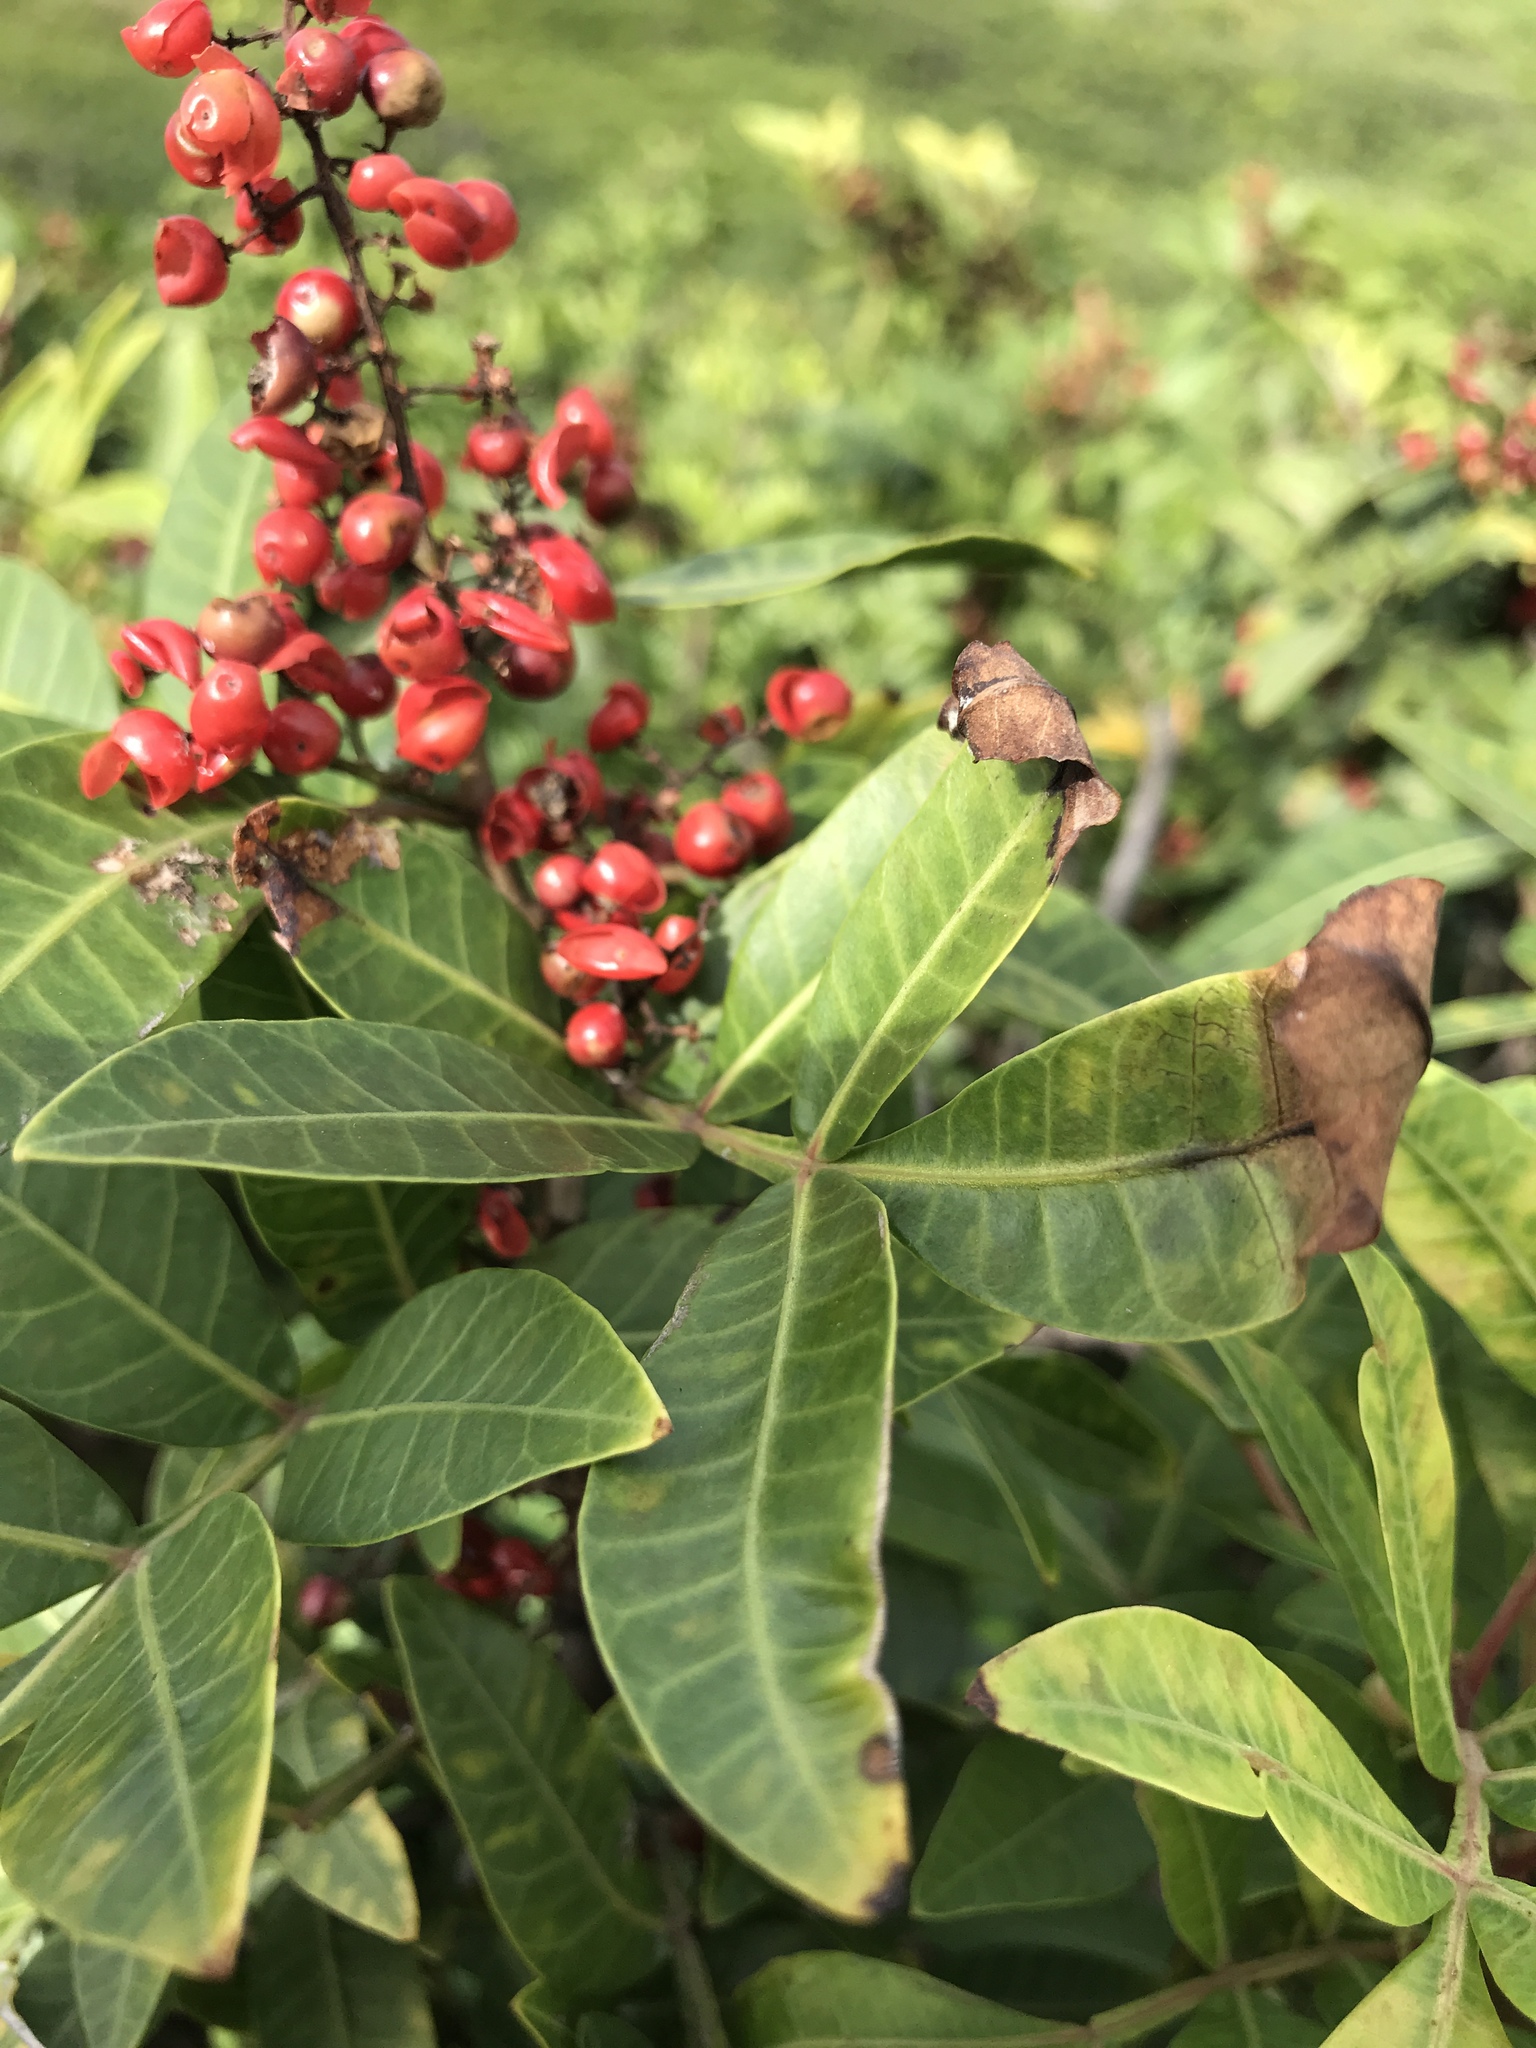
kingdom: Plantae
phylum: Tracheophyta
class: Magnoliopsida
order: Sapindales
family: Anacardiaceae
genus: Schinus
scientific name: Schinus terebinthifolia
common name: Brazilian peppertree
